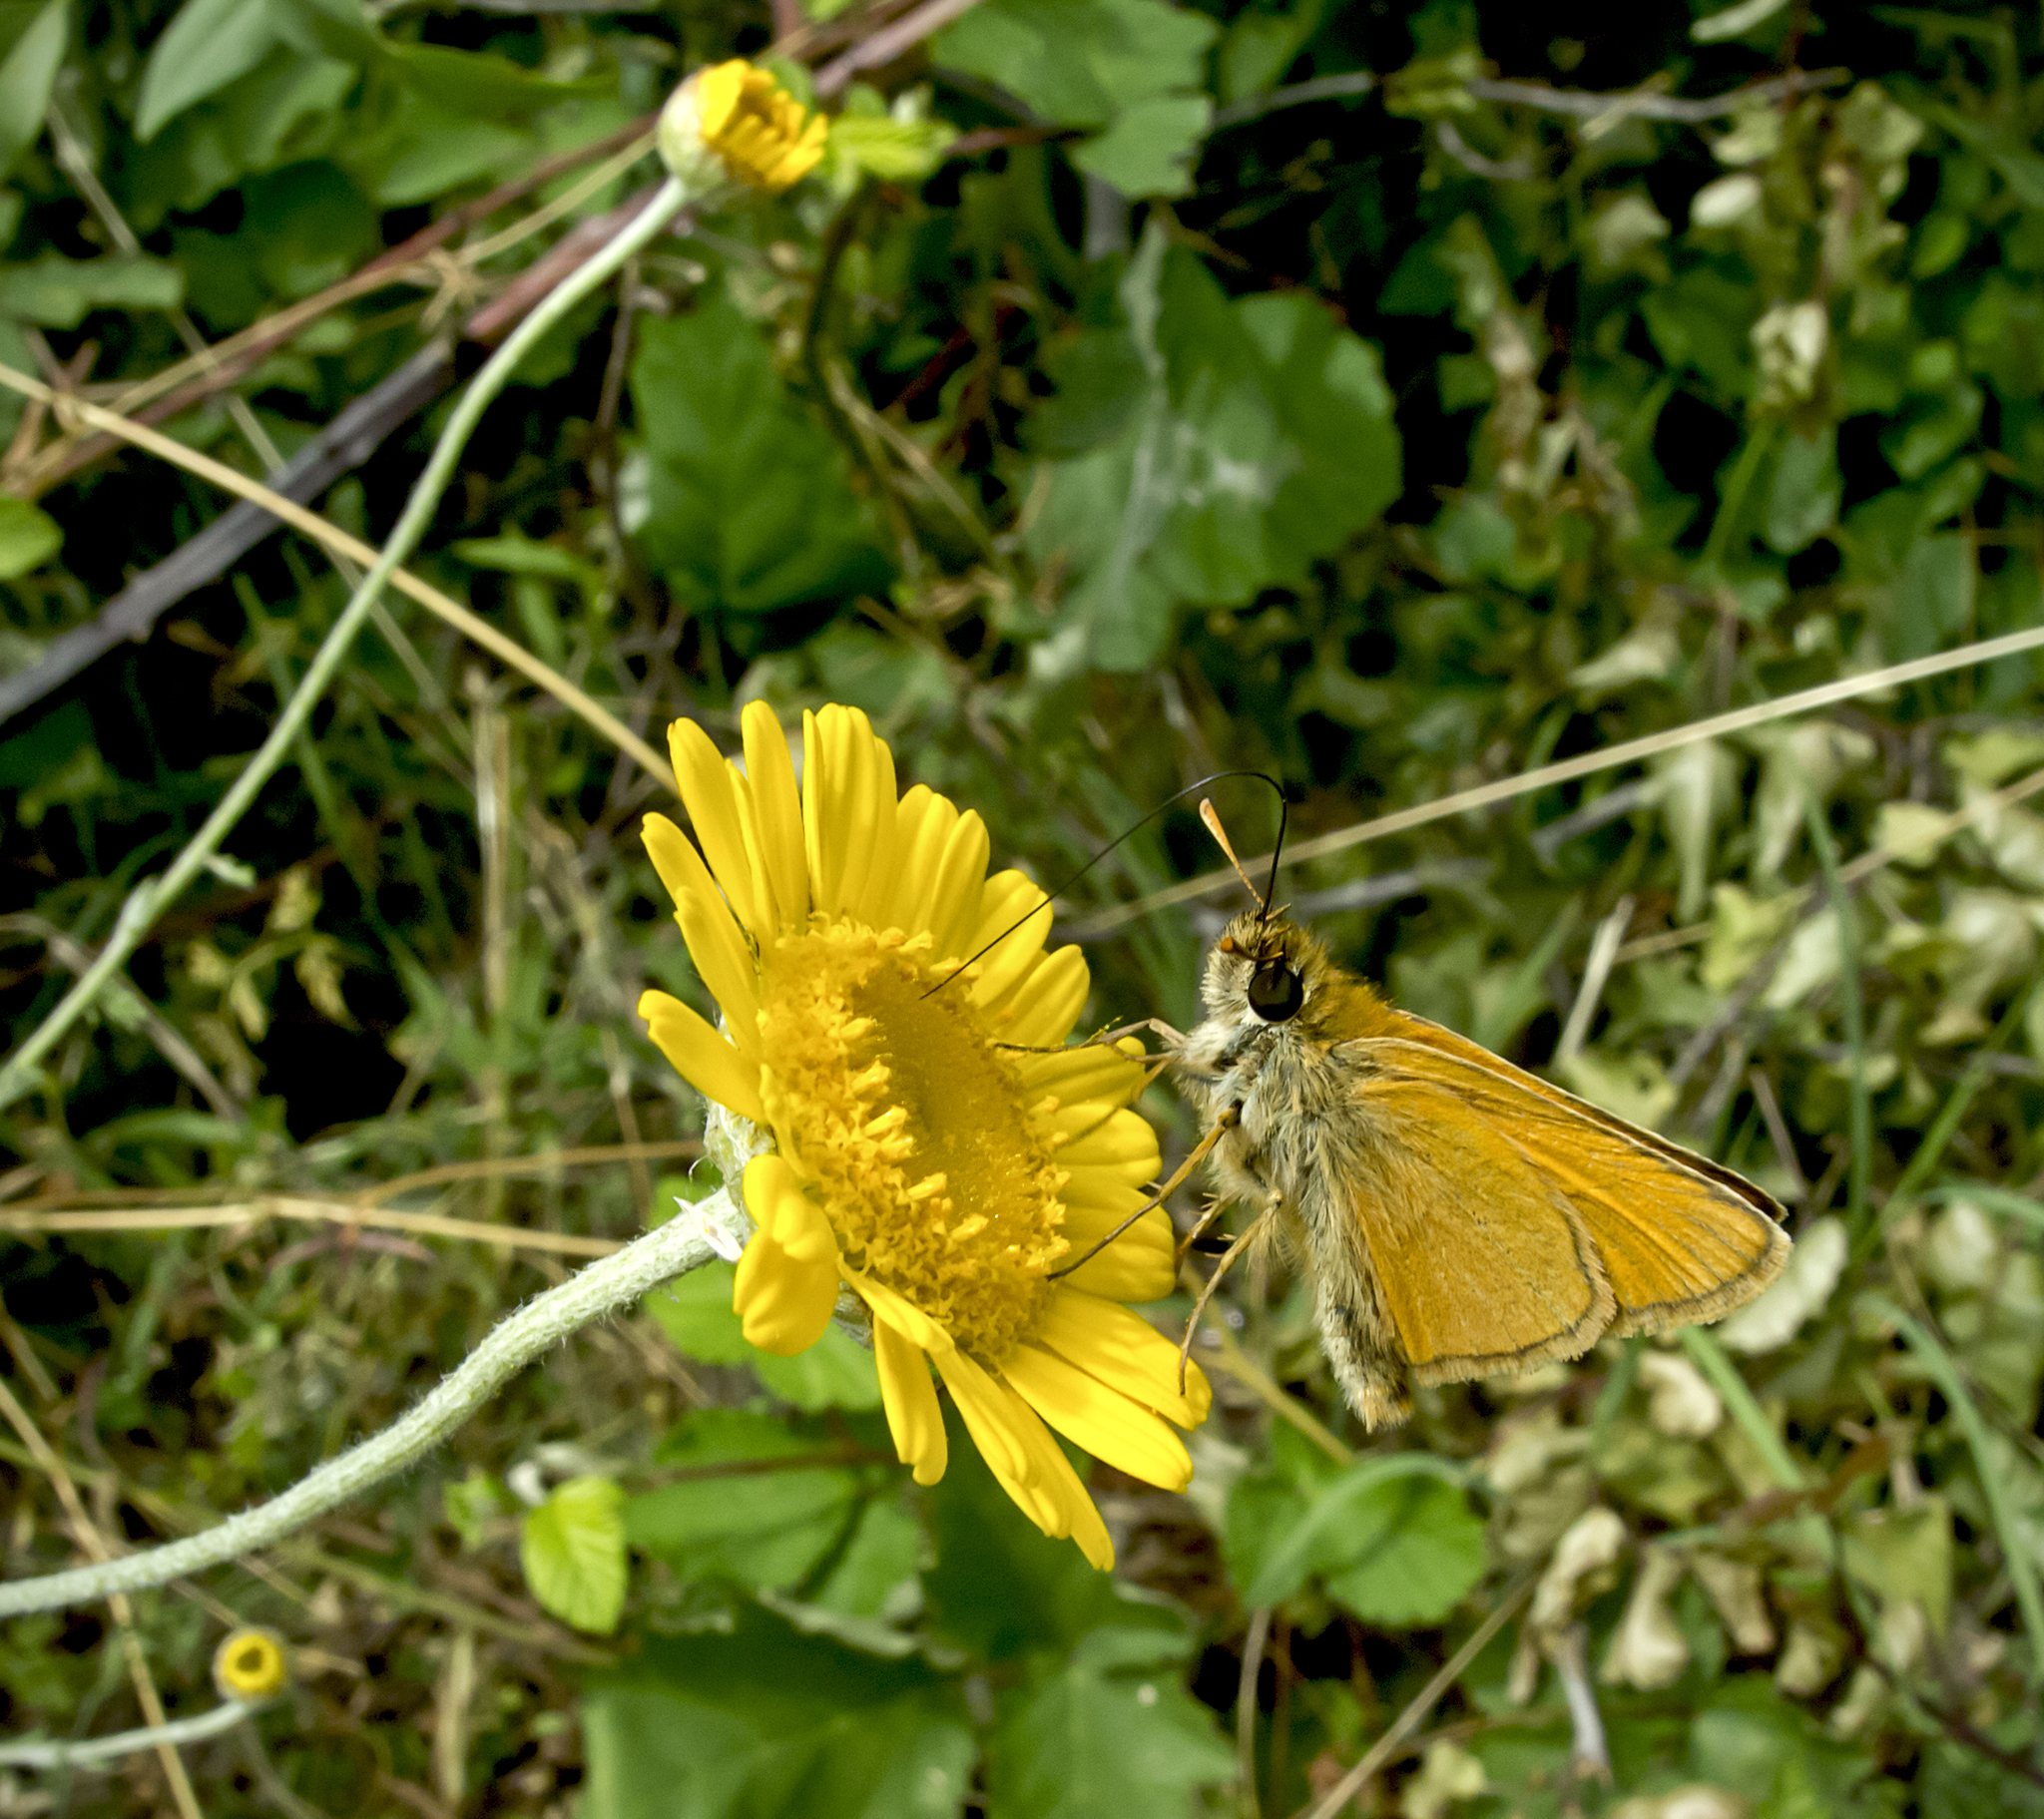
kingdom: Animalia
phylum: Arthropoda
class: Insecta
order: Lepidoptera
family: Hesperiidae
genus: Thymelicus
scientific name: Thymelicus sylvestris
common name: Small skipper
